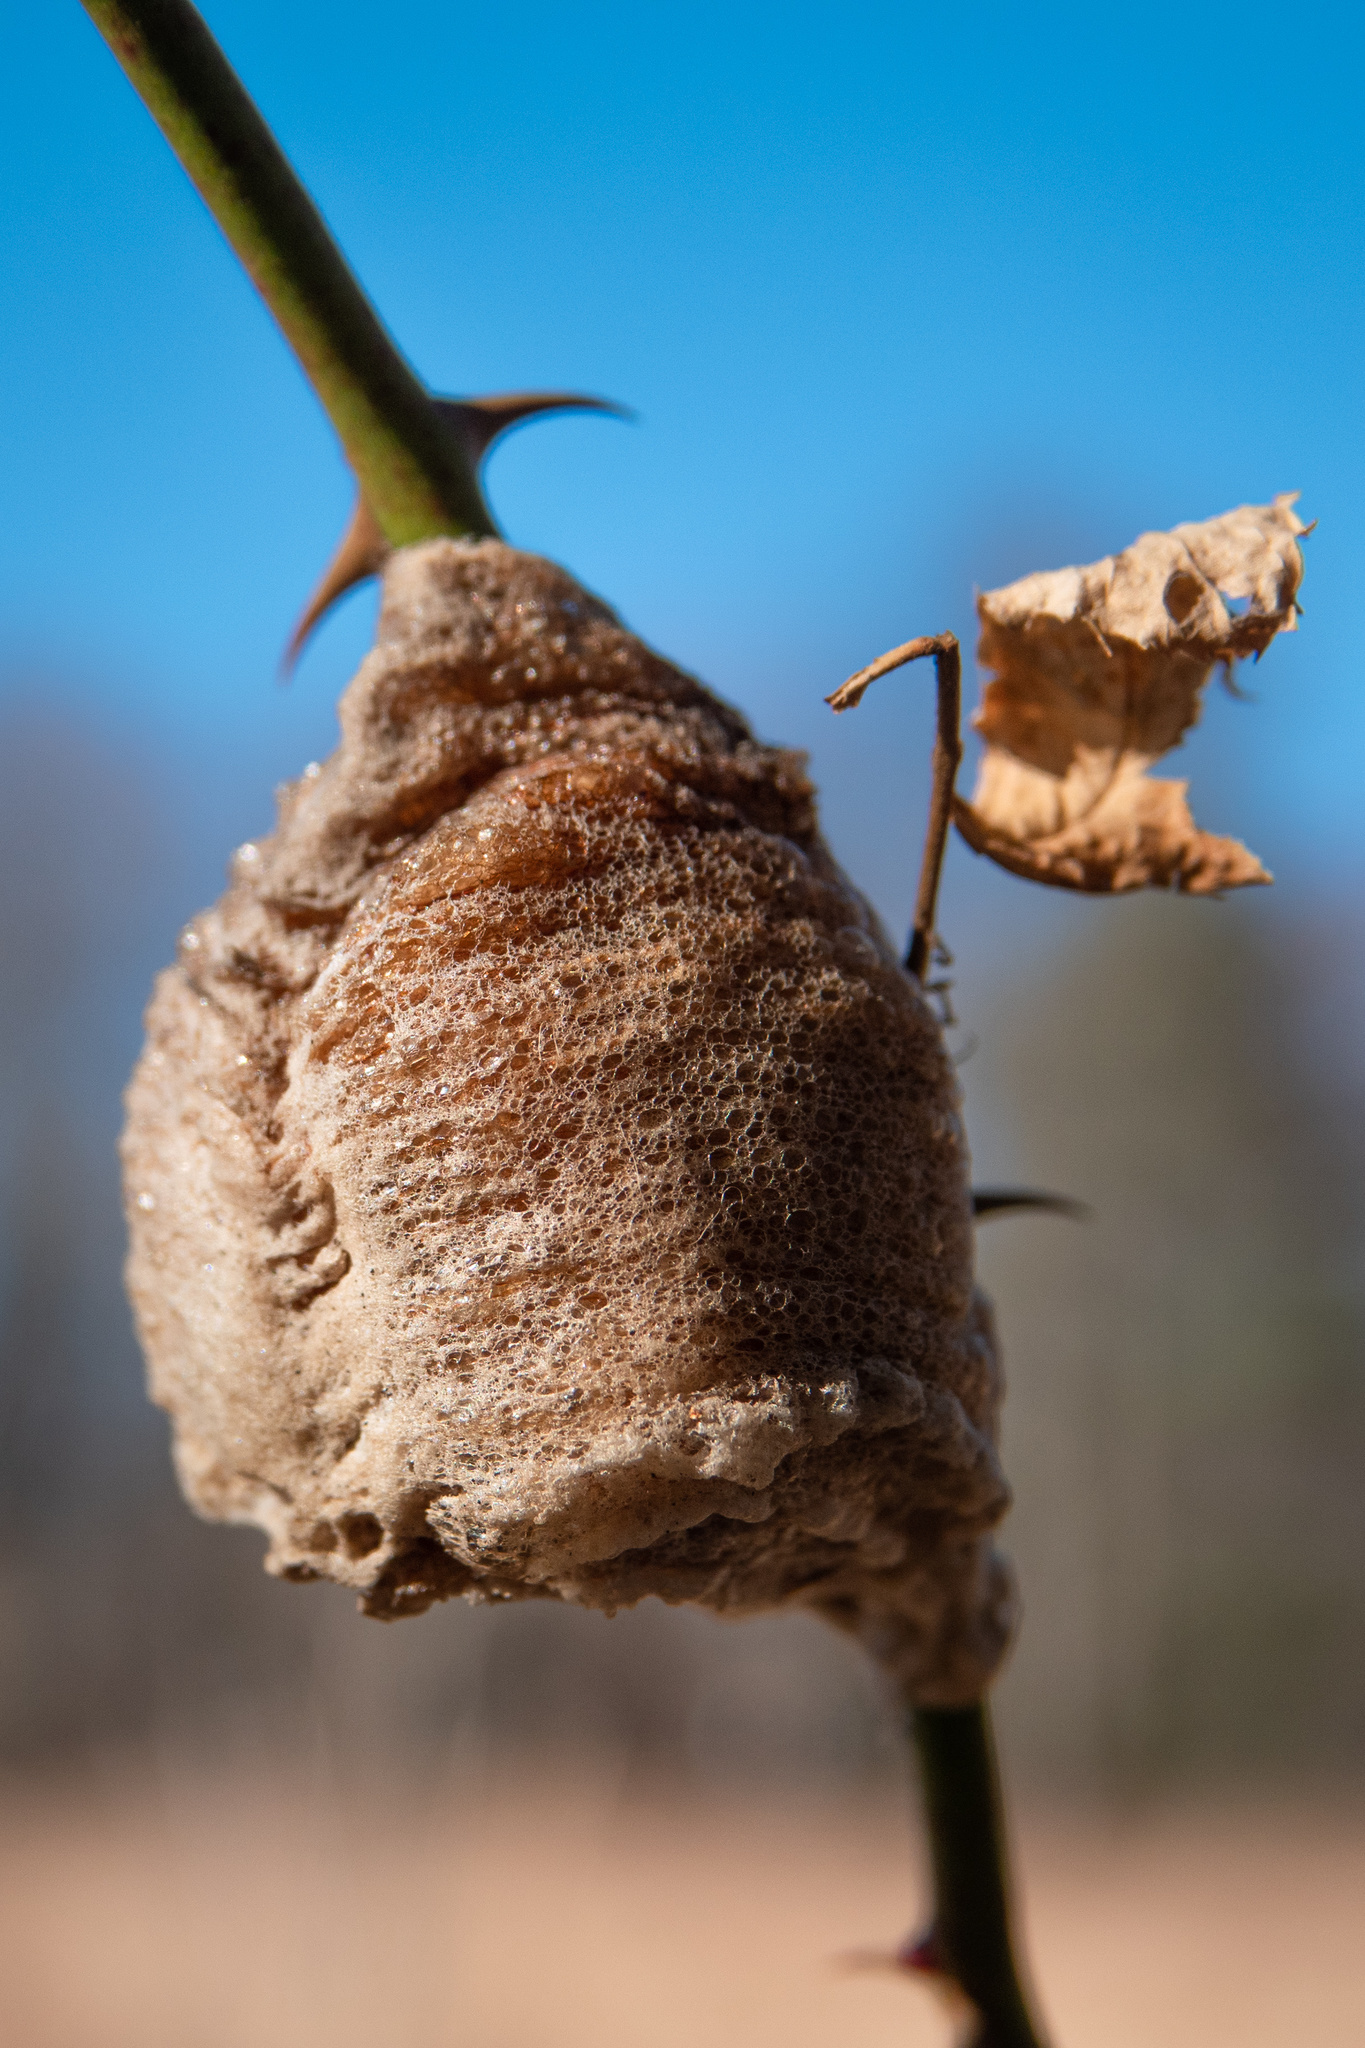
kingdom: Animalia
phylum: Arthropoda
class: Insecta
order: Mantodea
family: Mantidae
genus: Tenodera
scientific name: Tenodera sinensis
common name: Chinese mantis
